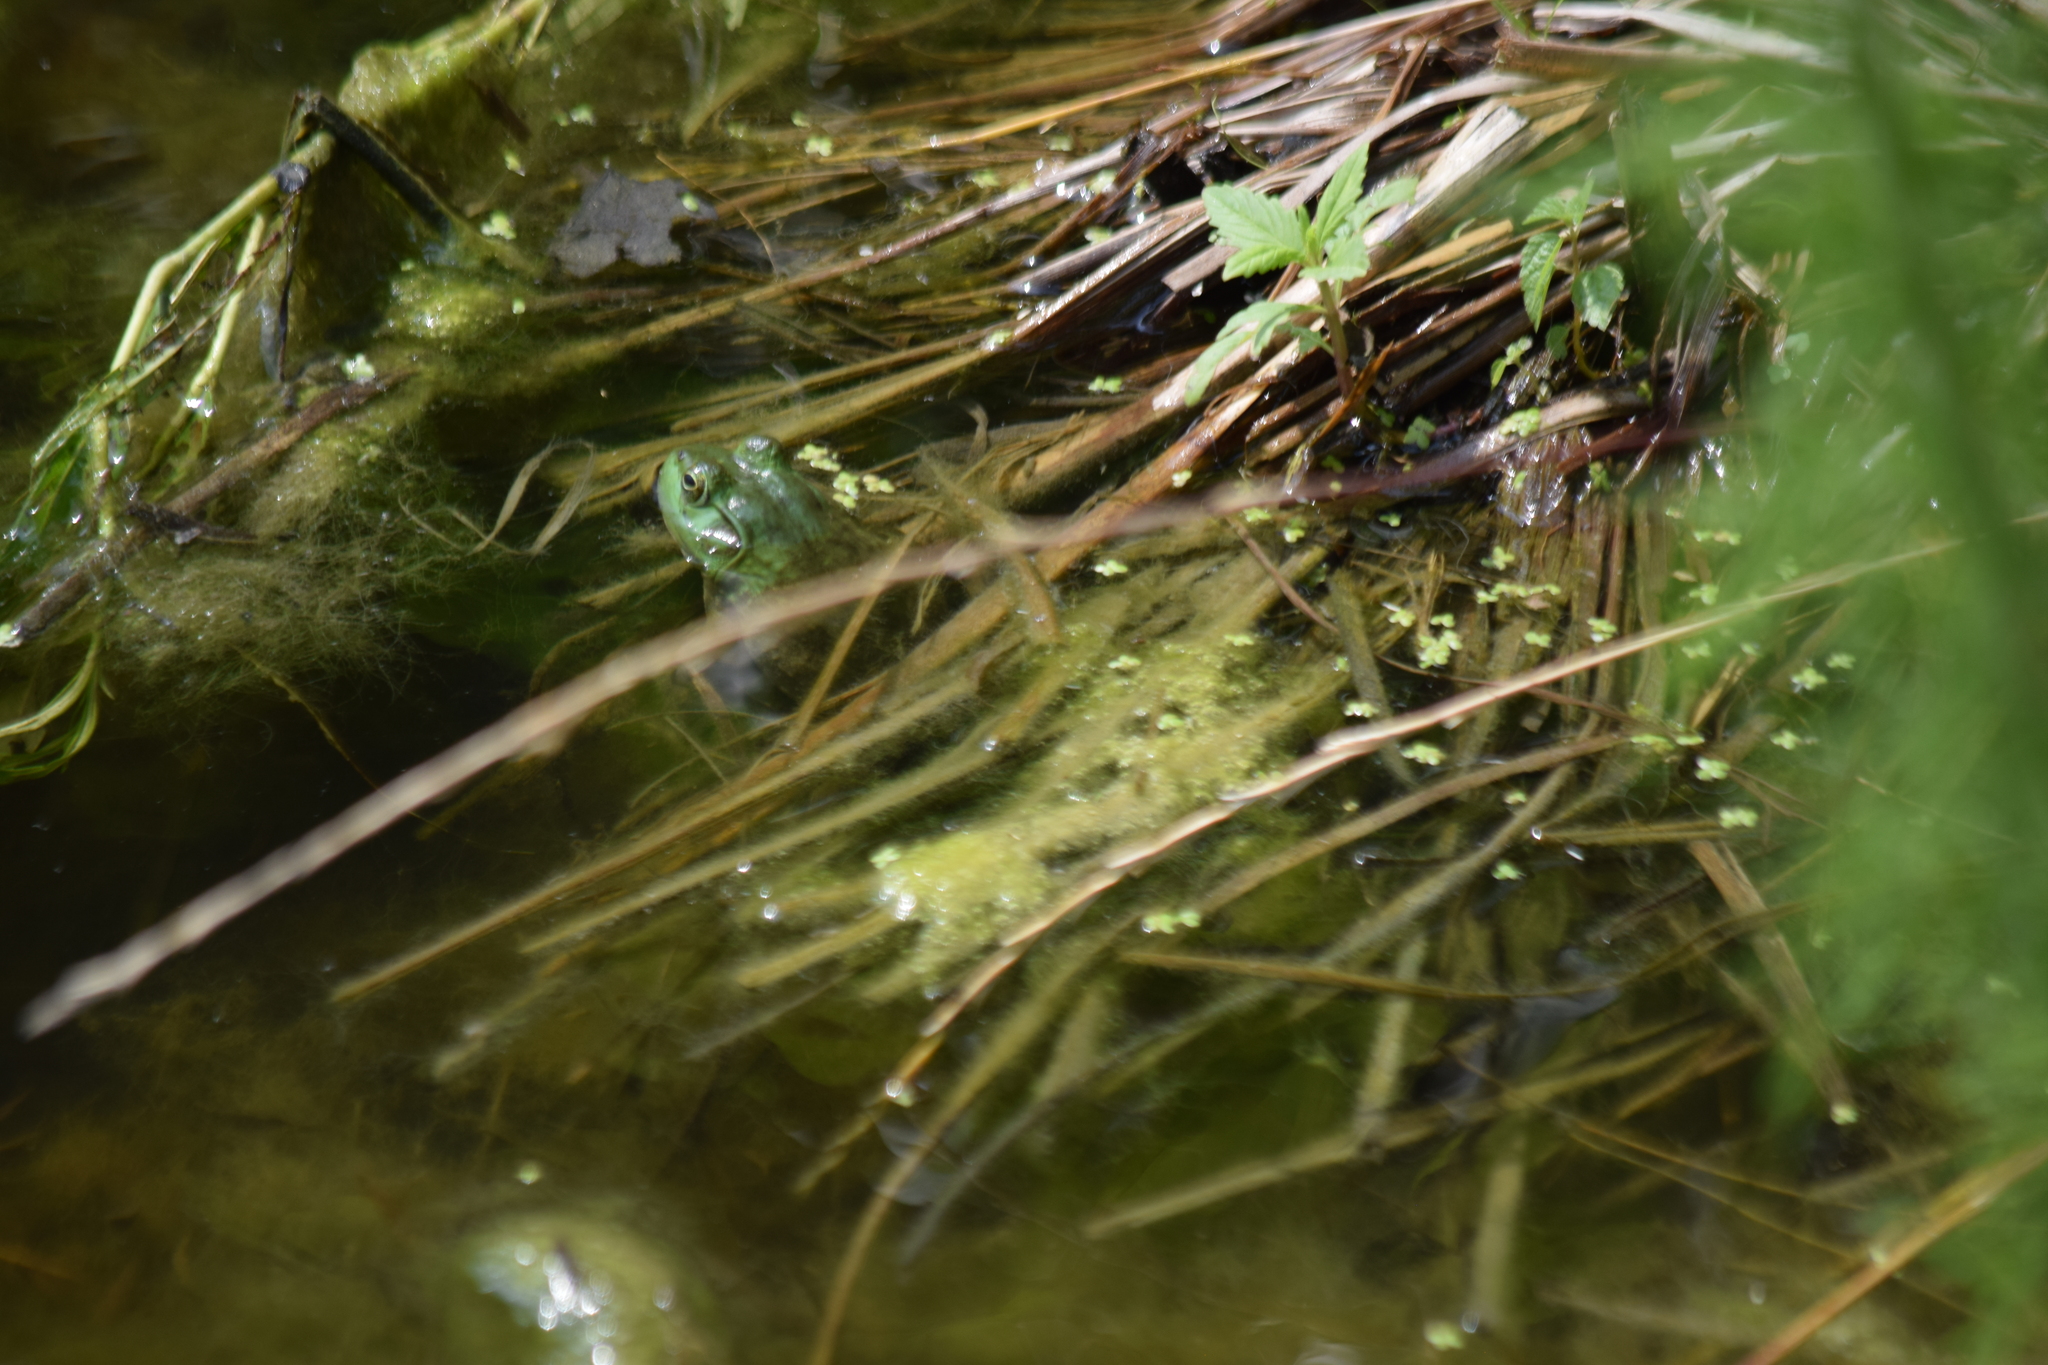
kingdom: Animalia
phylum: Chordata
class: Amphibia
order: Anura
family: Ranidae
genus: Lithobates
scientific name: Lithobates catesbeianus
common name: American bullfrog
